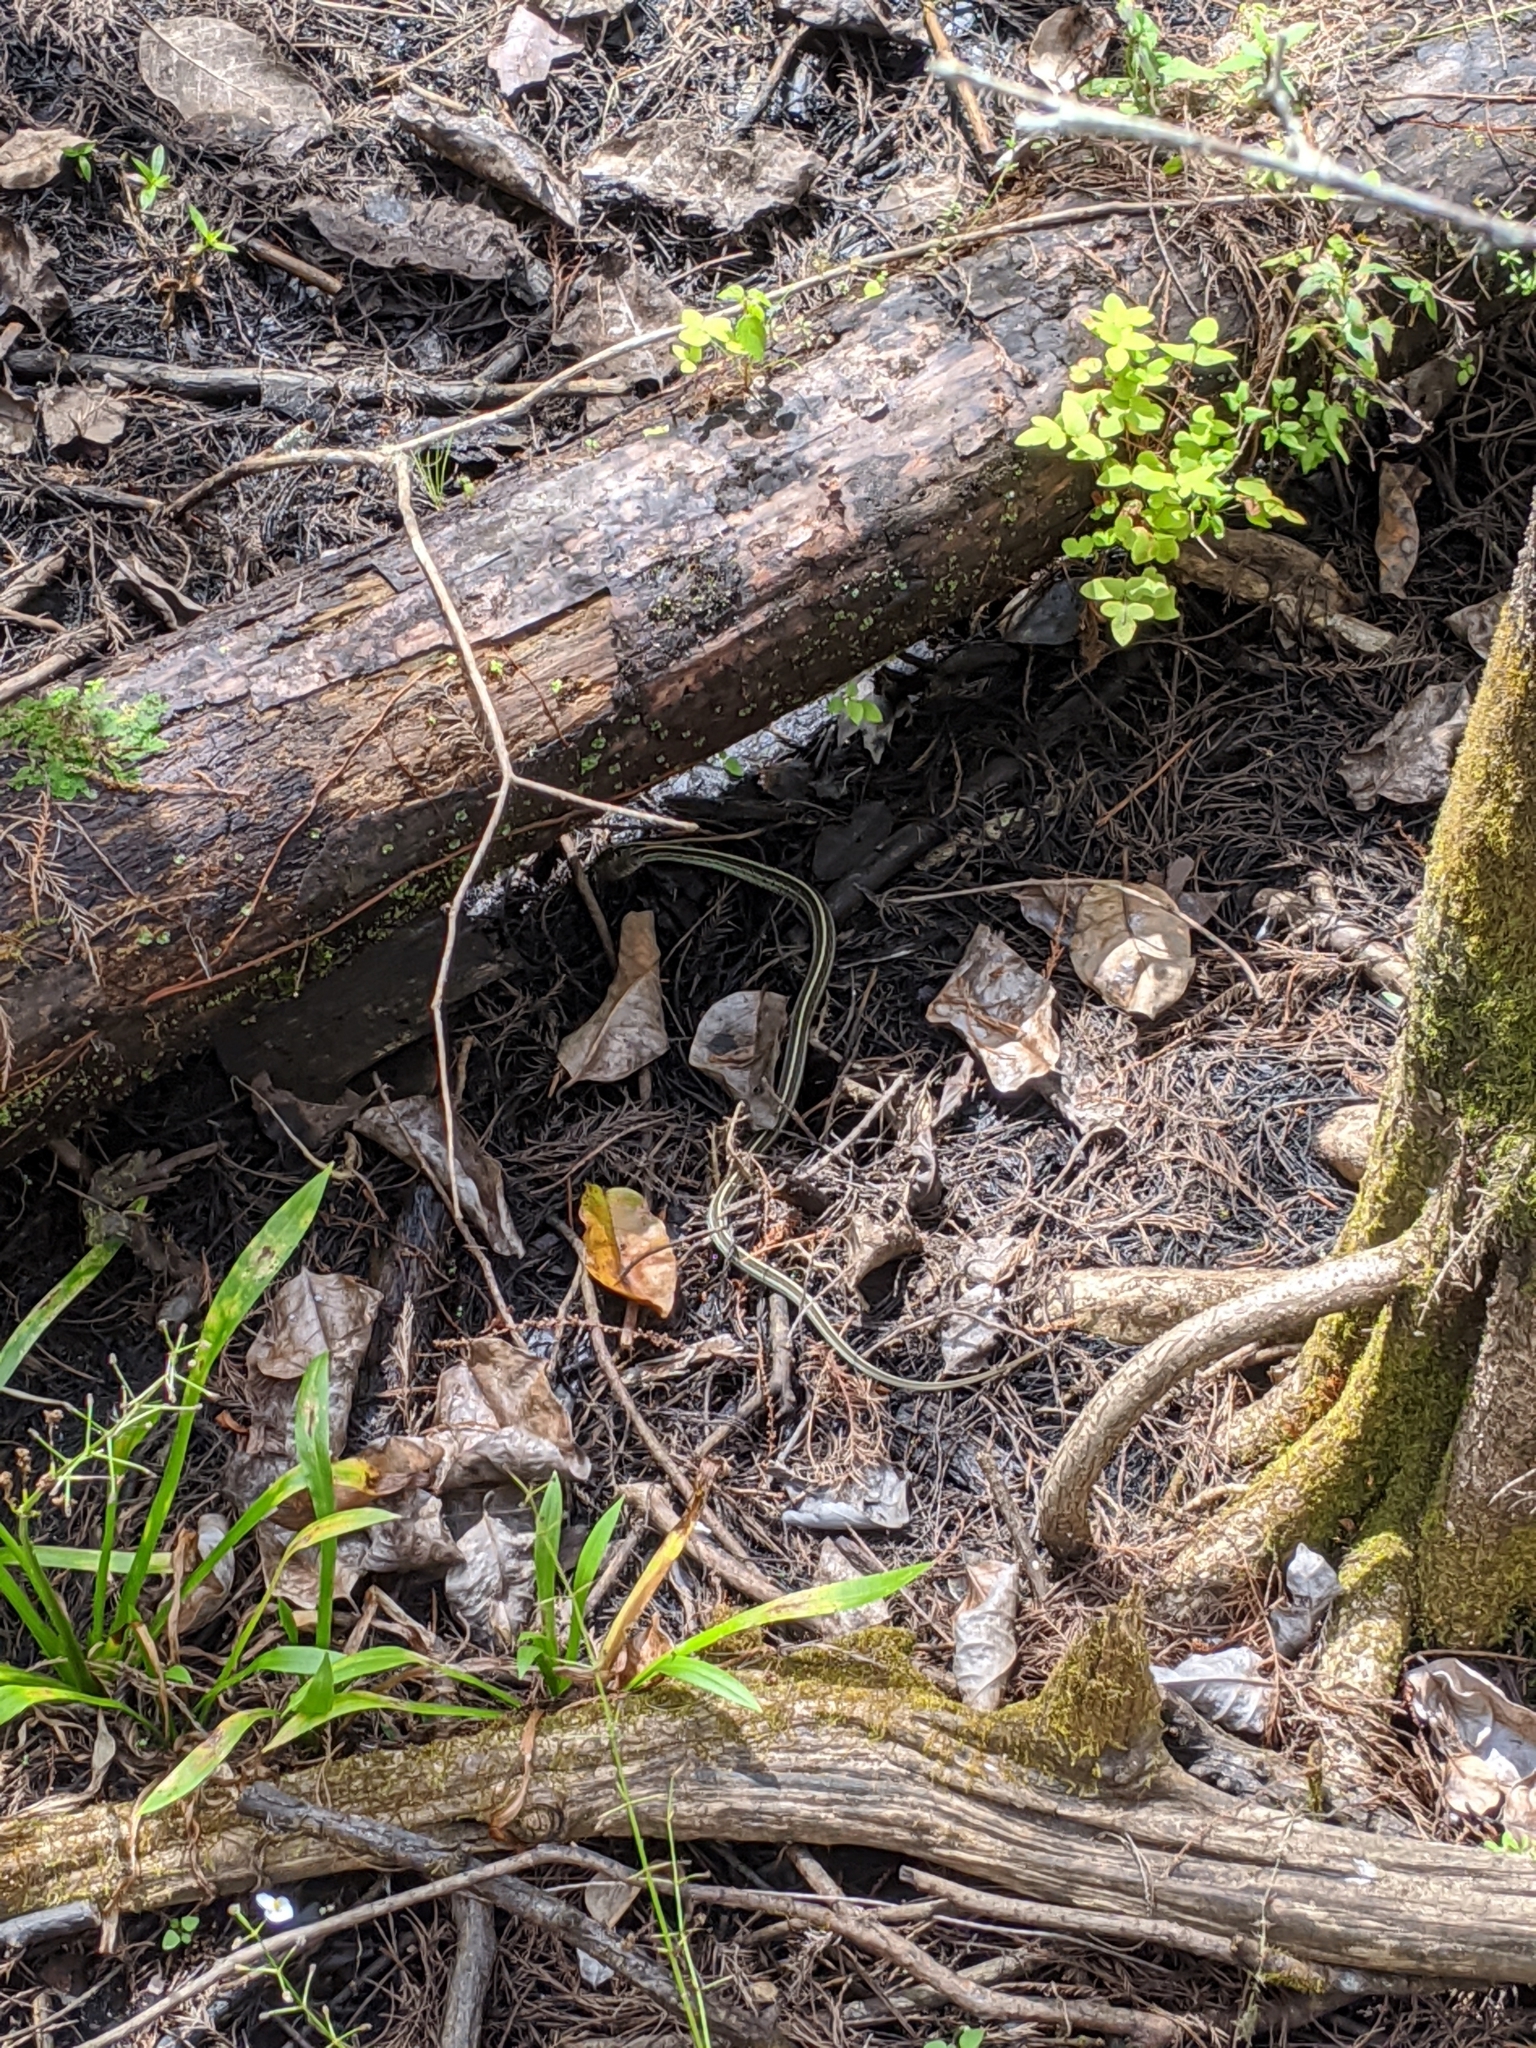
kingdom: Animalia
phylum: Chordata
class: Squamata
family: Colubridae
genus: Thamnophis
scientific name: Thamnophis sirtalis
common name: Common garter snake
